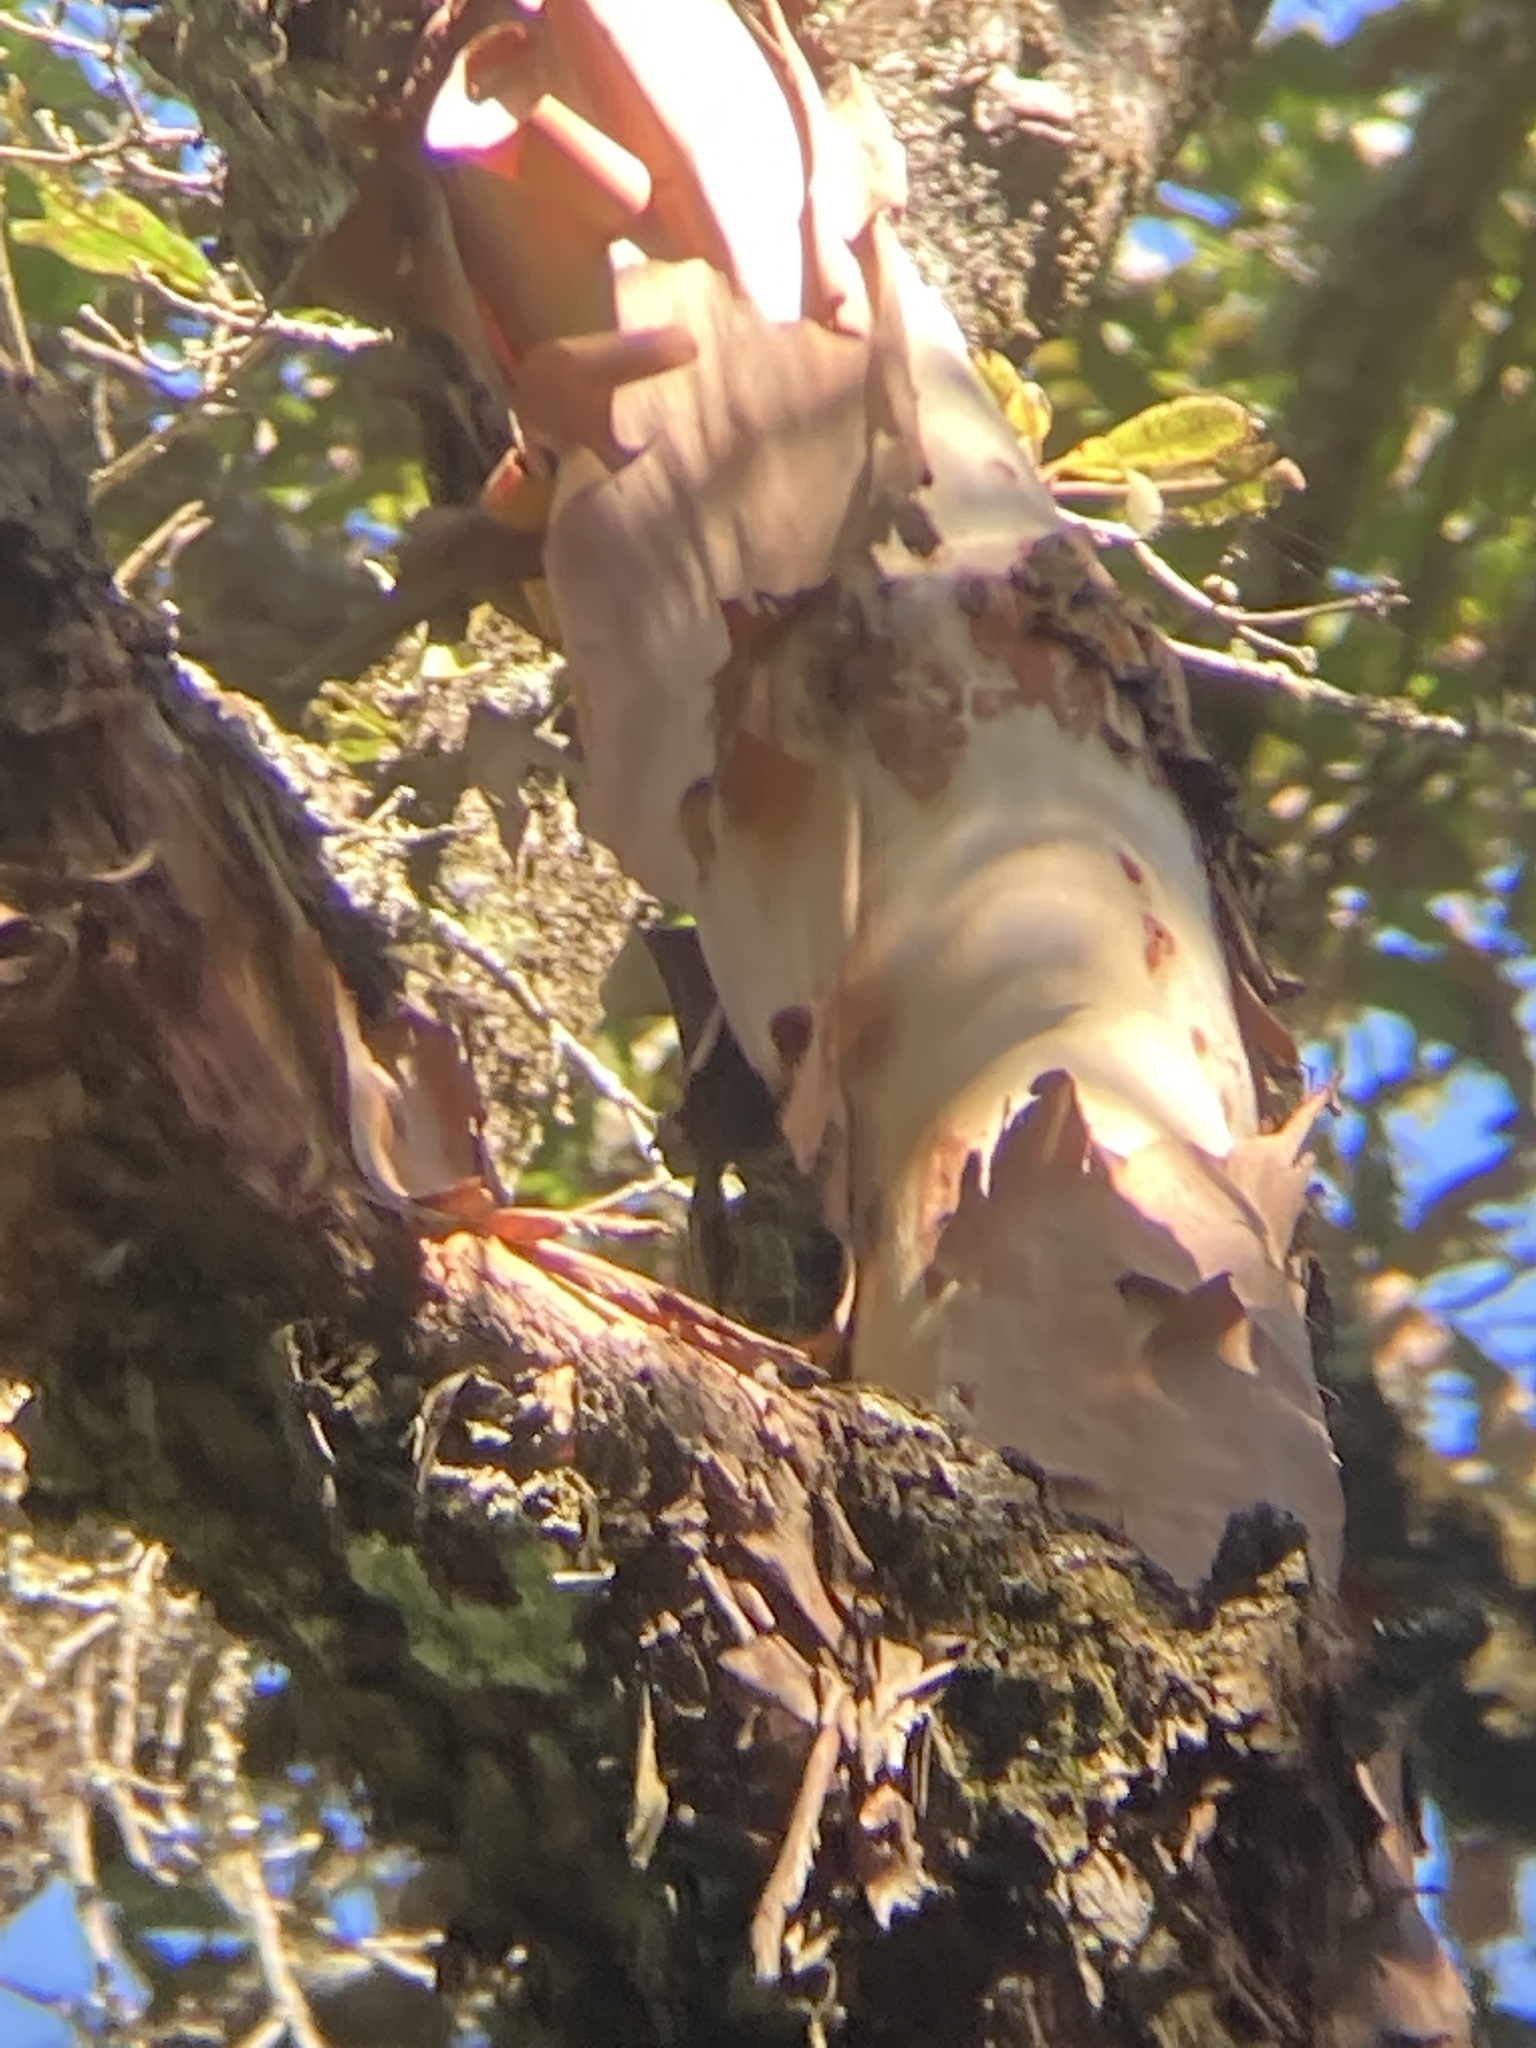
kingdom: Plantae
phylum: Tracheophyta
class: Magnoliopsida
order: Ericales
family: Ericaceae
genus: Arbutus
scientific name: Arbutus xalapensis
